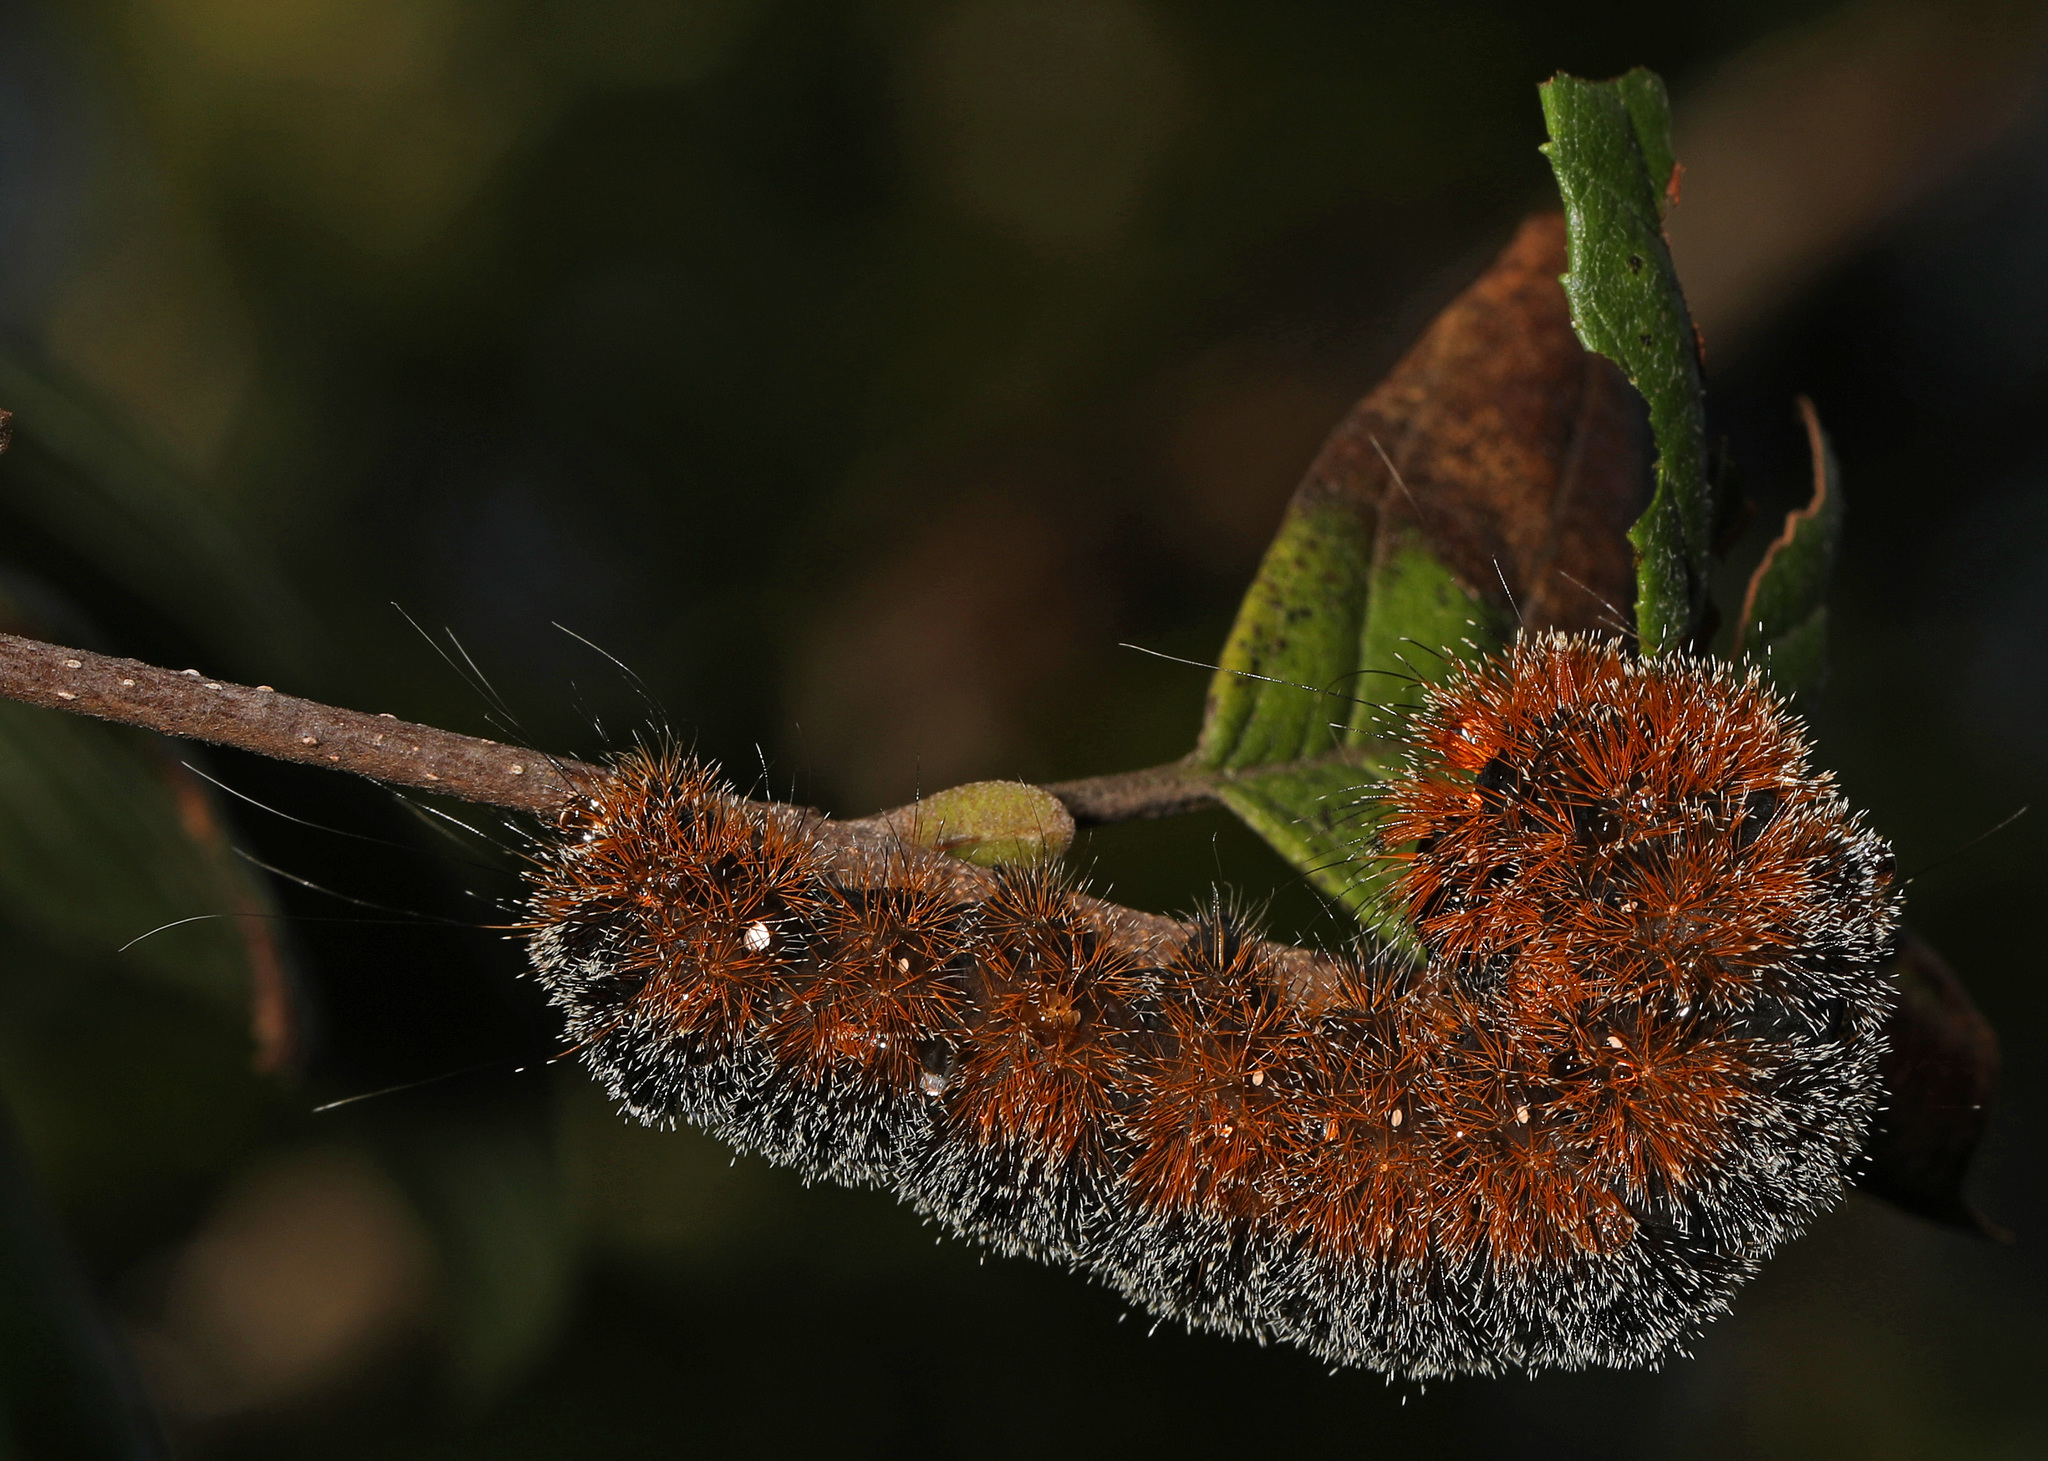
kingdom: Animalia
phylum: Arthropoda
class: Insecta
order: Lepidoptera
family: Noctuidae
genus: Acronicta
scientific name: Acronicta hastulifera
